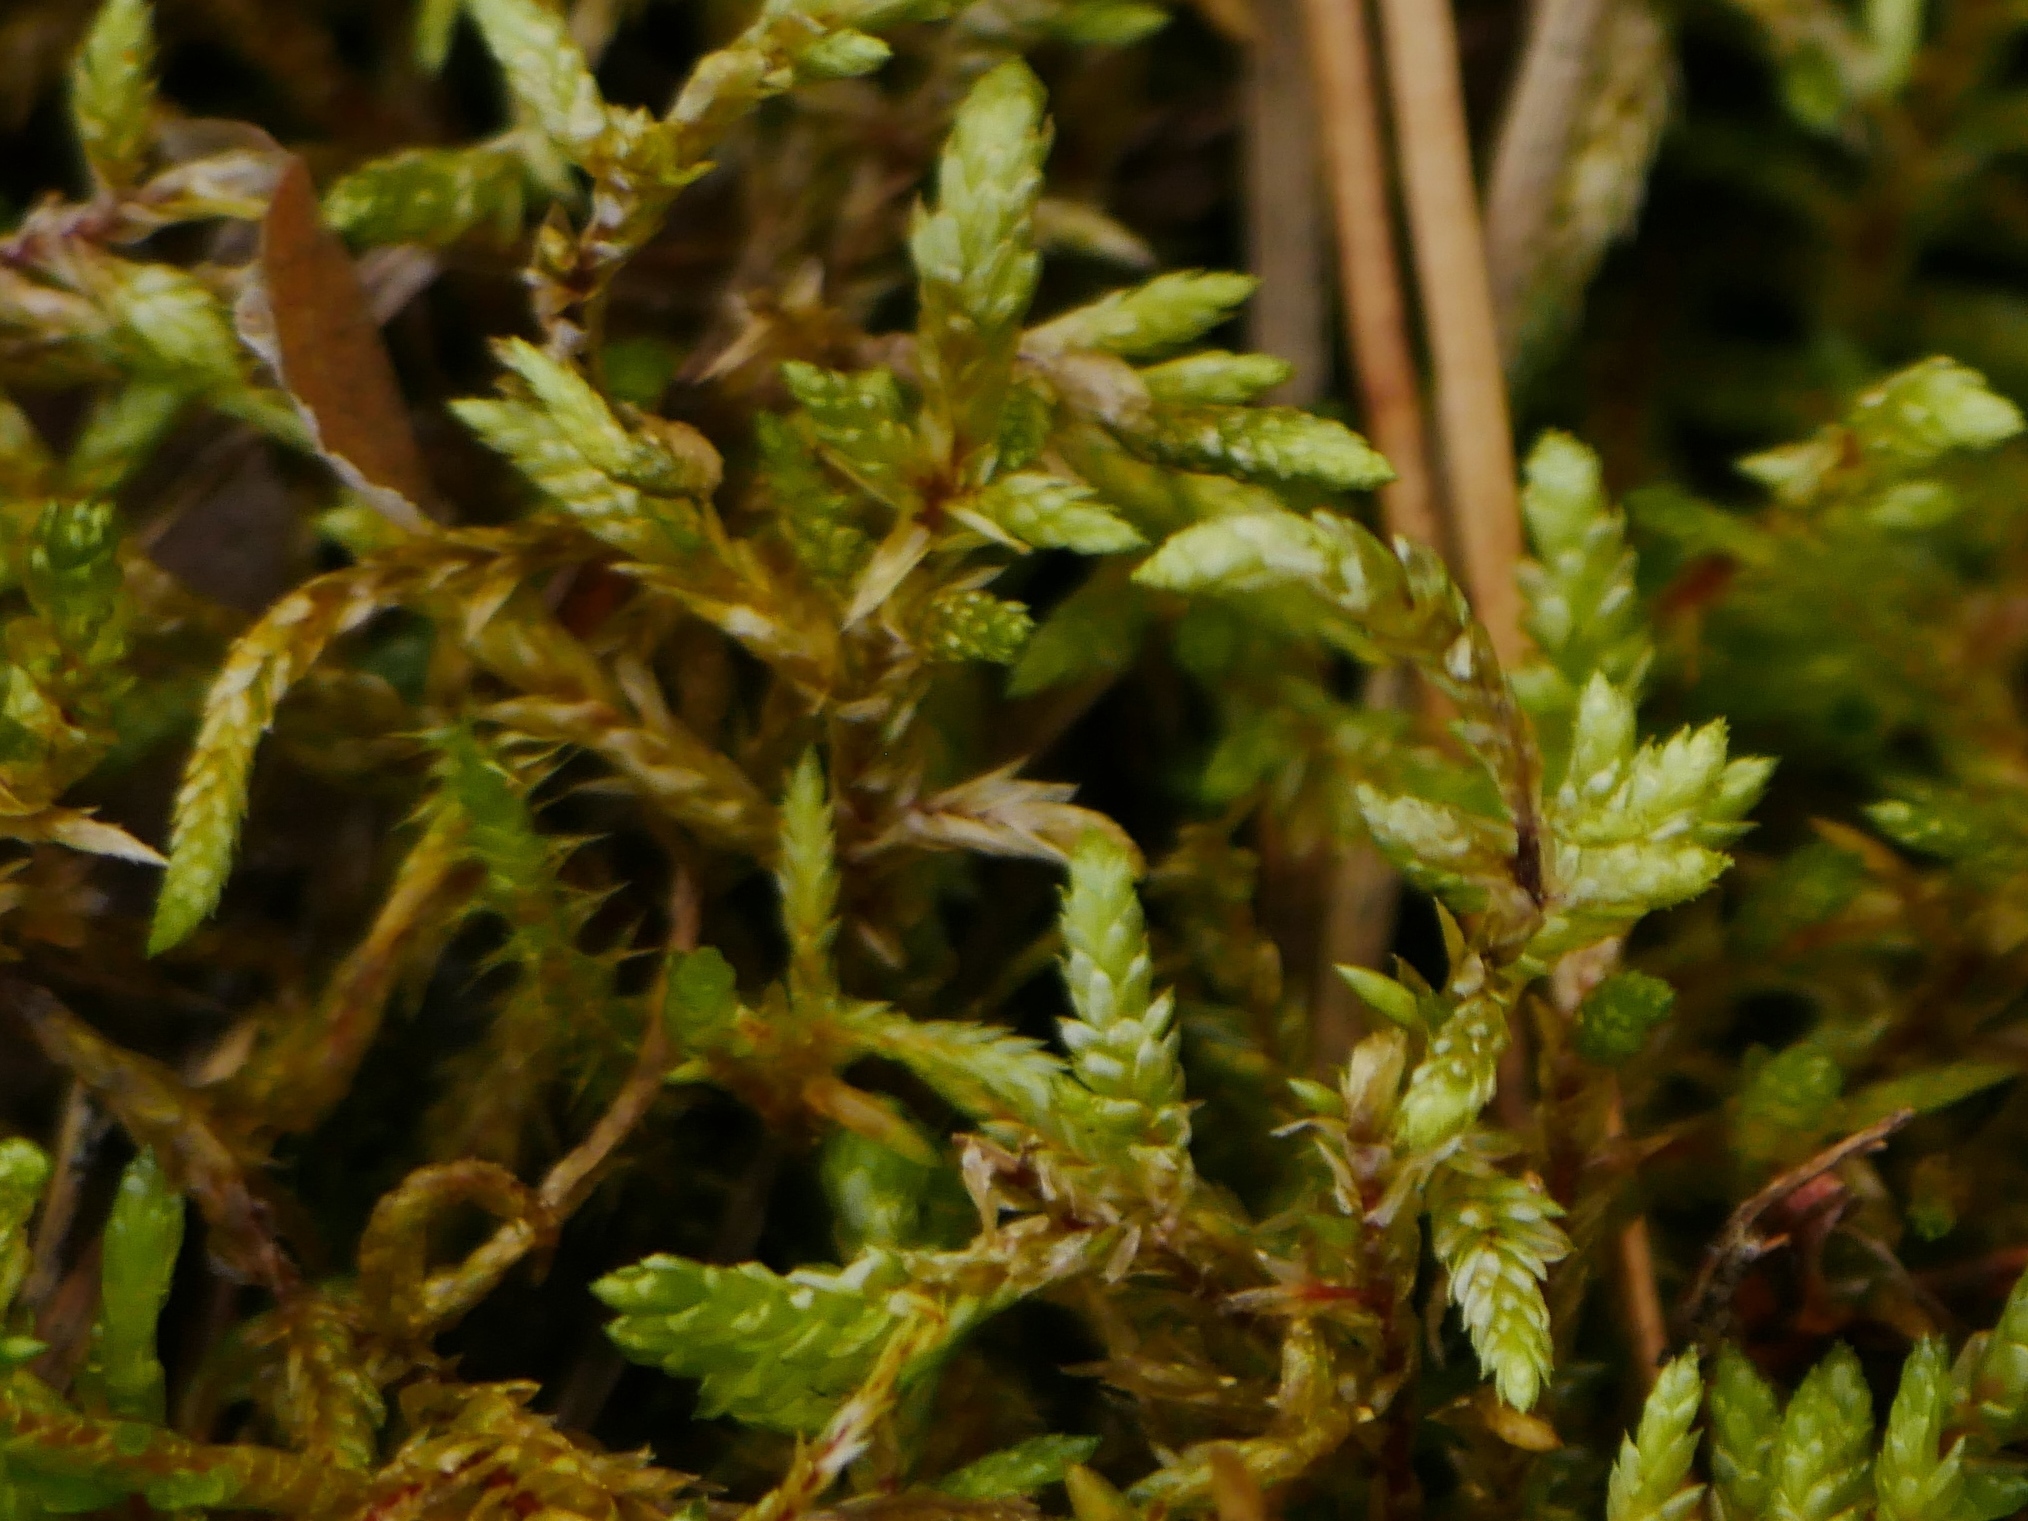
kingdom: Plantae
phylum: Bryophyta
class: Bryopsida
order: Hypnales
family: Hylocomiaceae
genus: Pleurozium
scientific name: Pleurozium schreberi
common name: Red-stemmed feather moss
